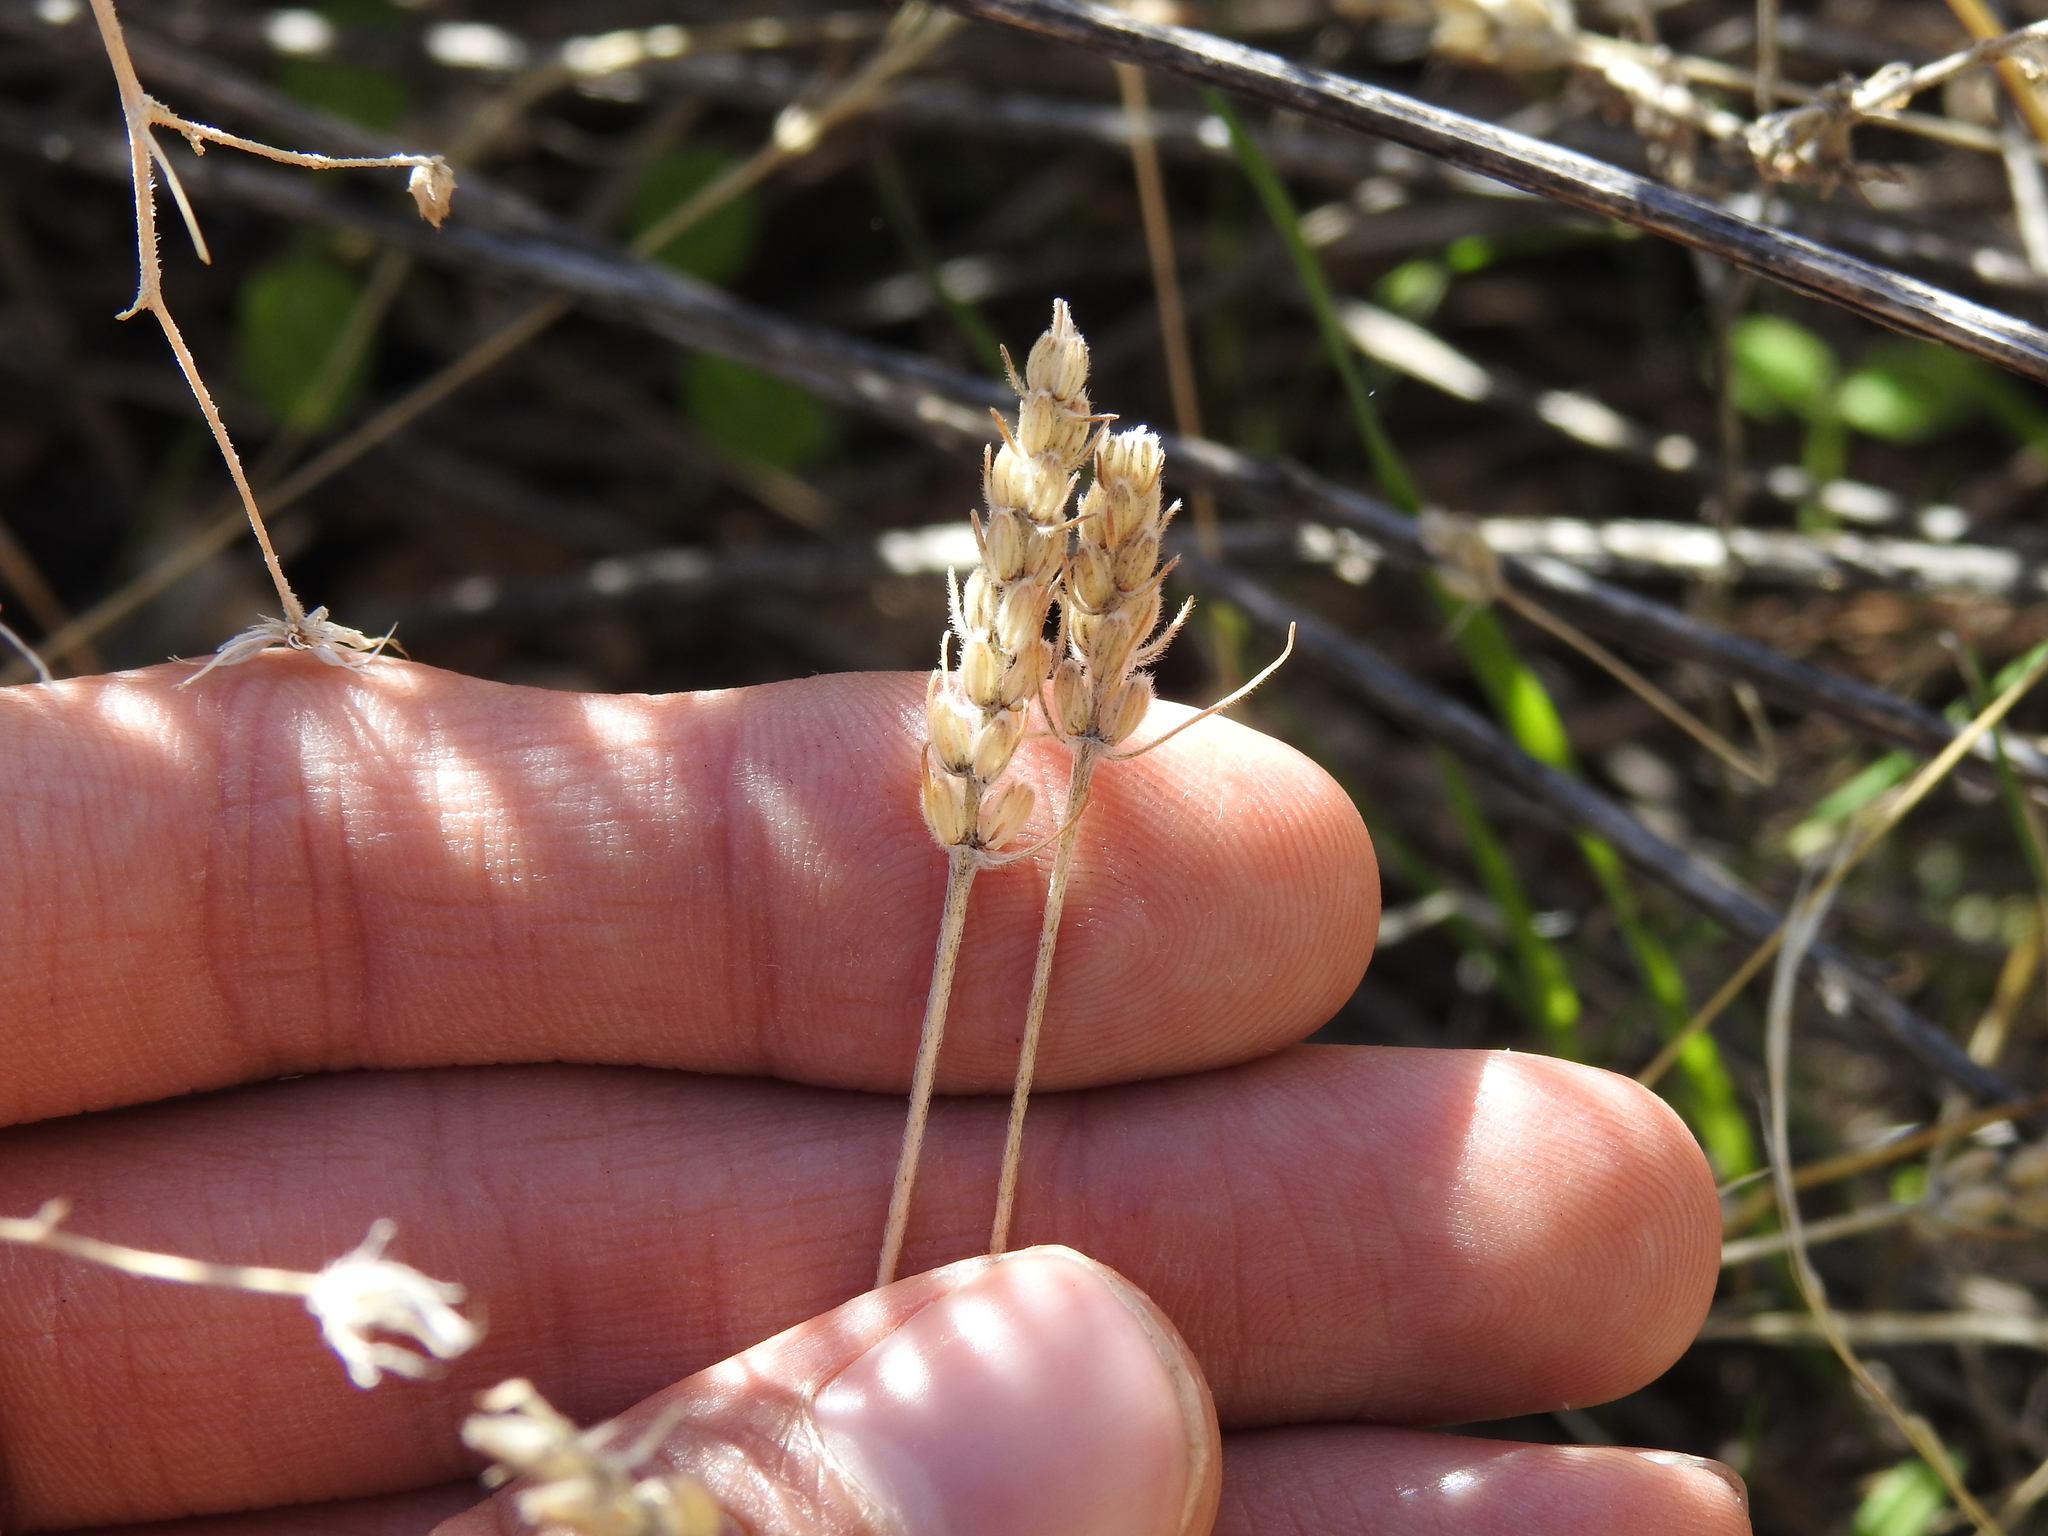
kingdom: Plantae
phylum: Tracheophyta
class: Magnoliopsida
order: Lamiales
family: Plantaginaceae
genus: Plantago
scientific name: Plantago patagonica
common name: Patagonia indian-wheat
